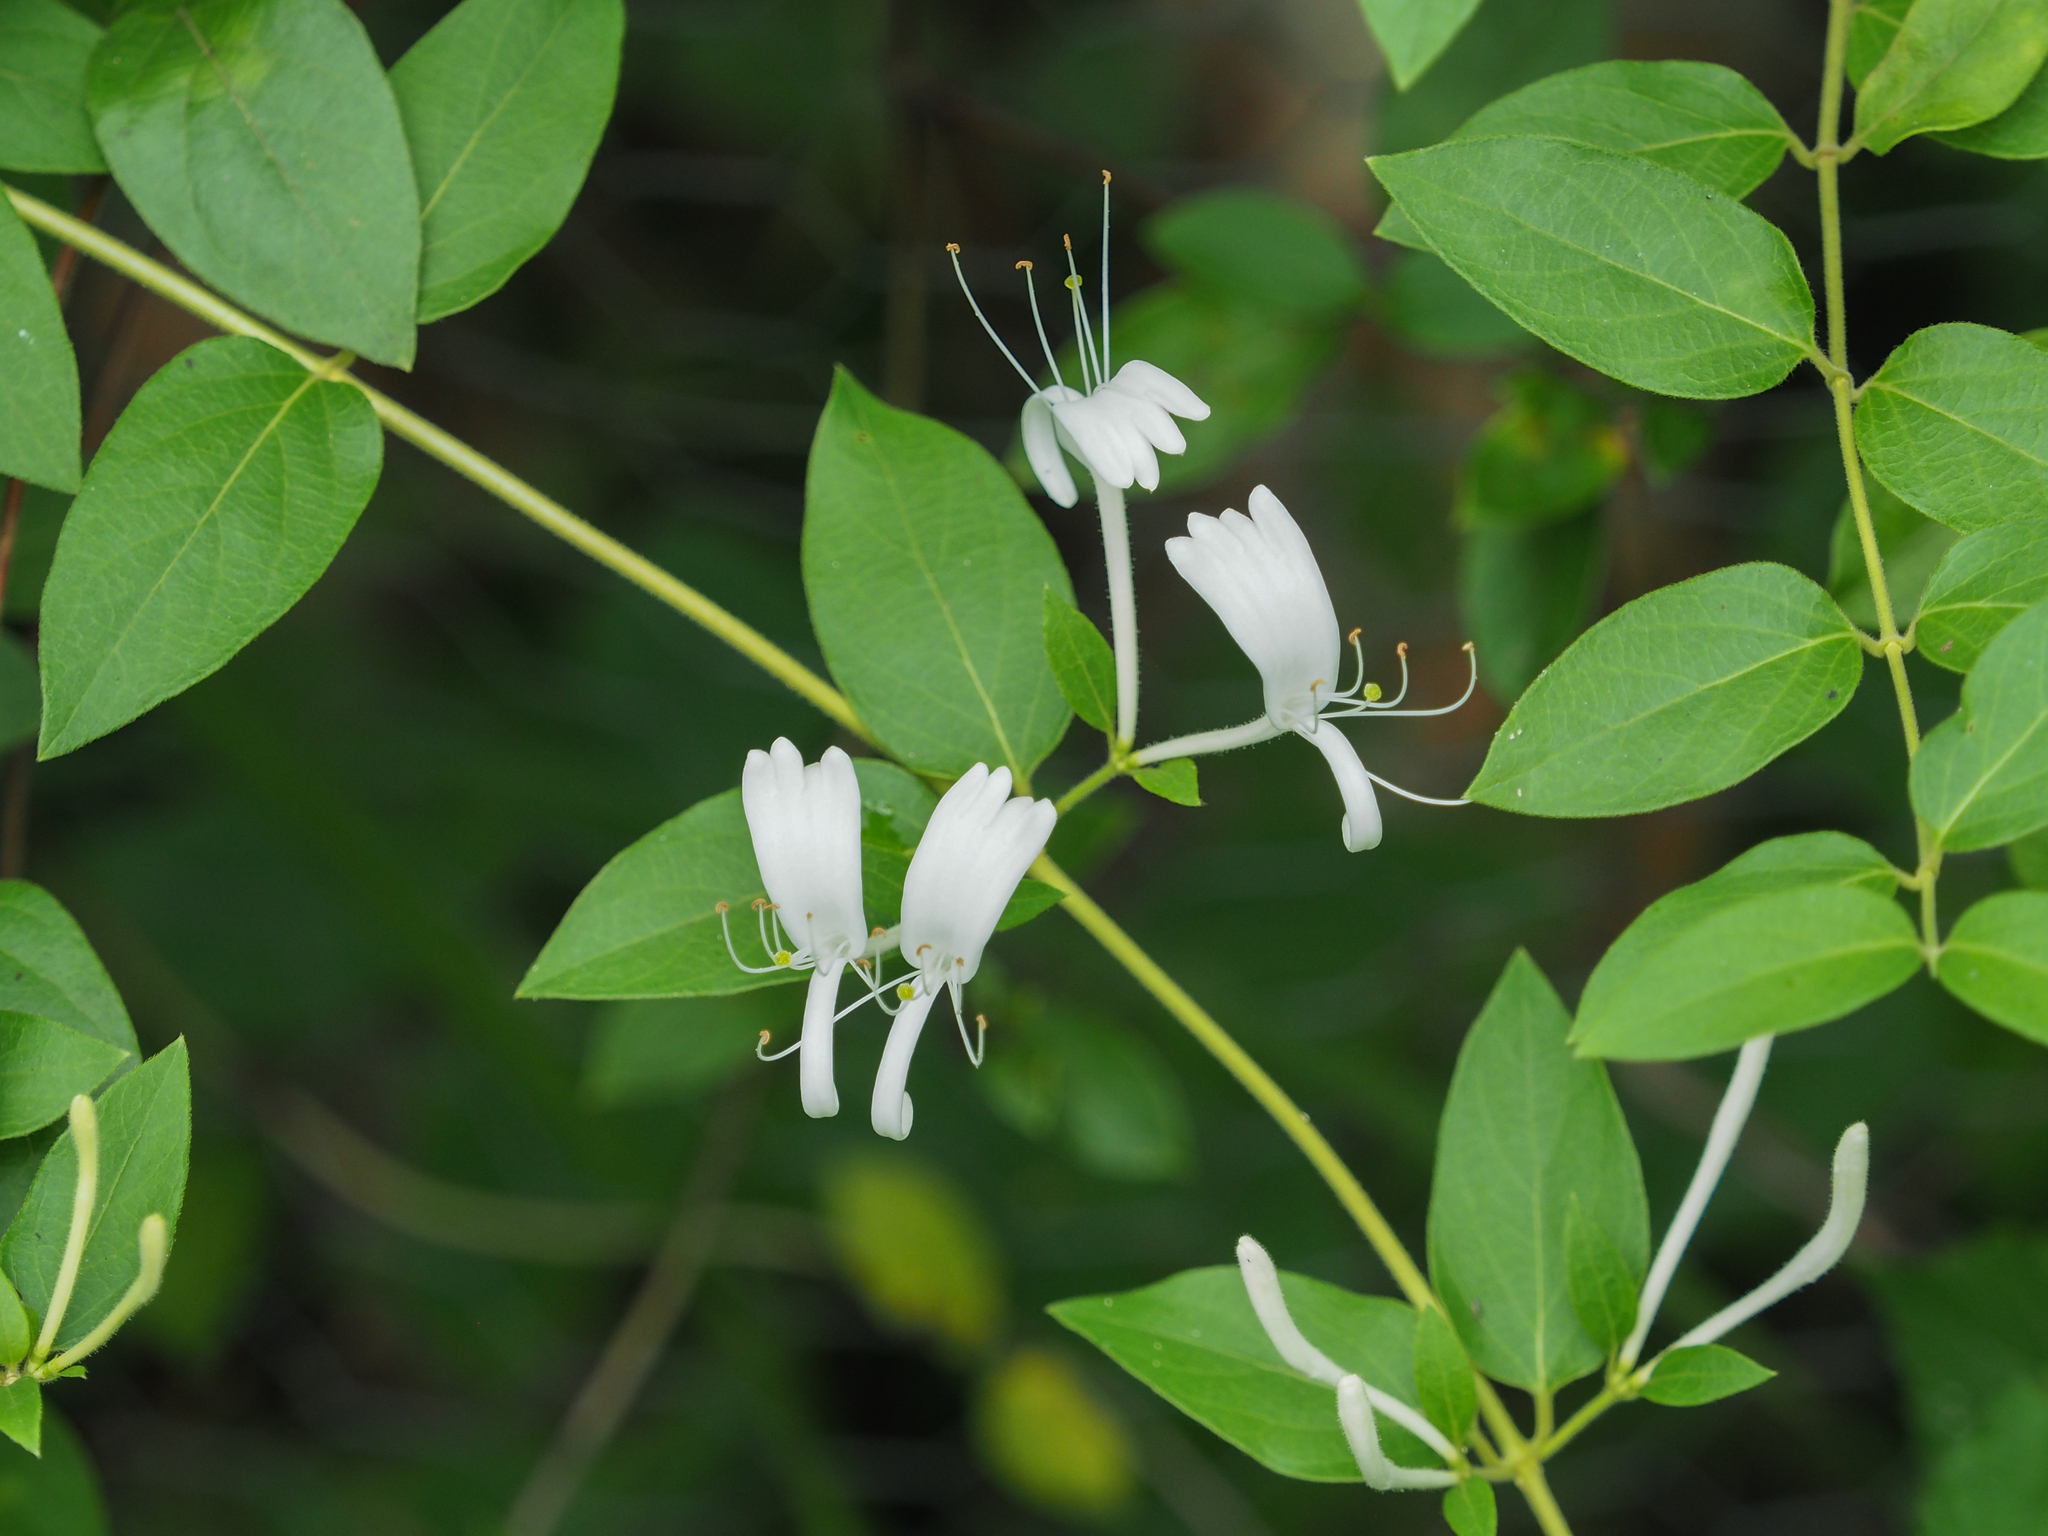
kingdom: Plantae
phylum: Tracheophyta
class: Magnoliopsida
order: Dipsacales
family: Caprifoliaceae
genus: Lonicera
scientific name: Lonicera japonica
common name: Japanese honeysuckle
